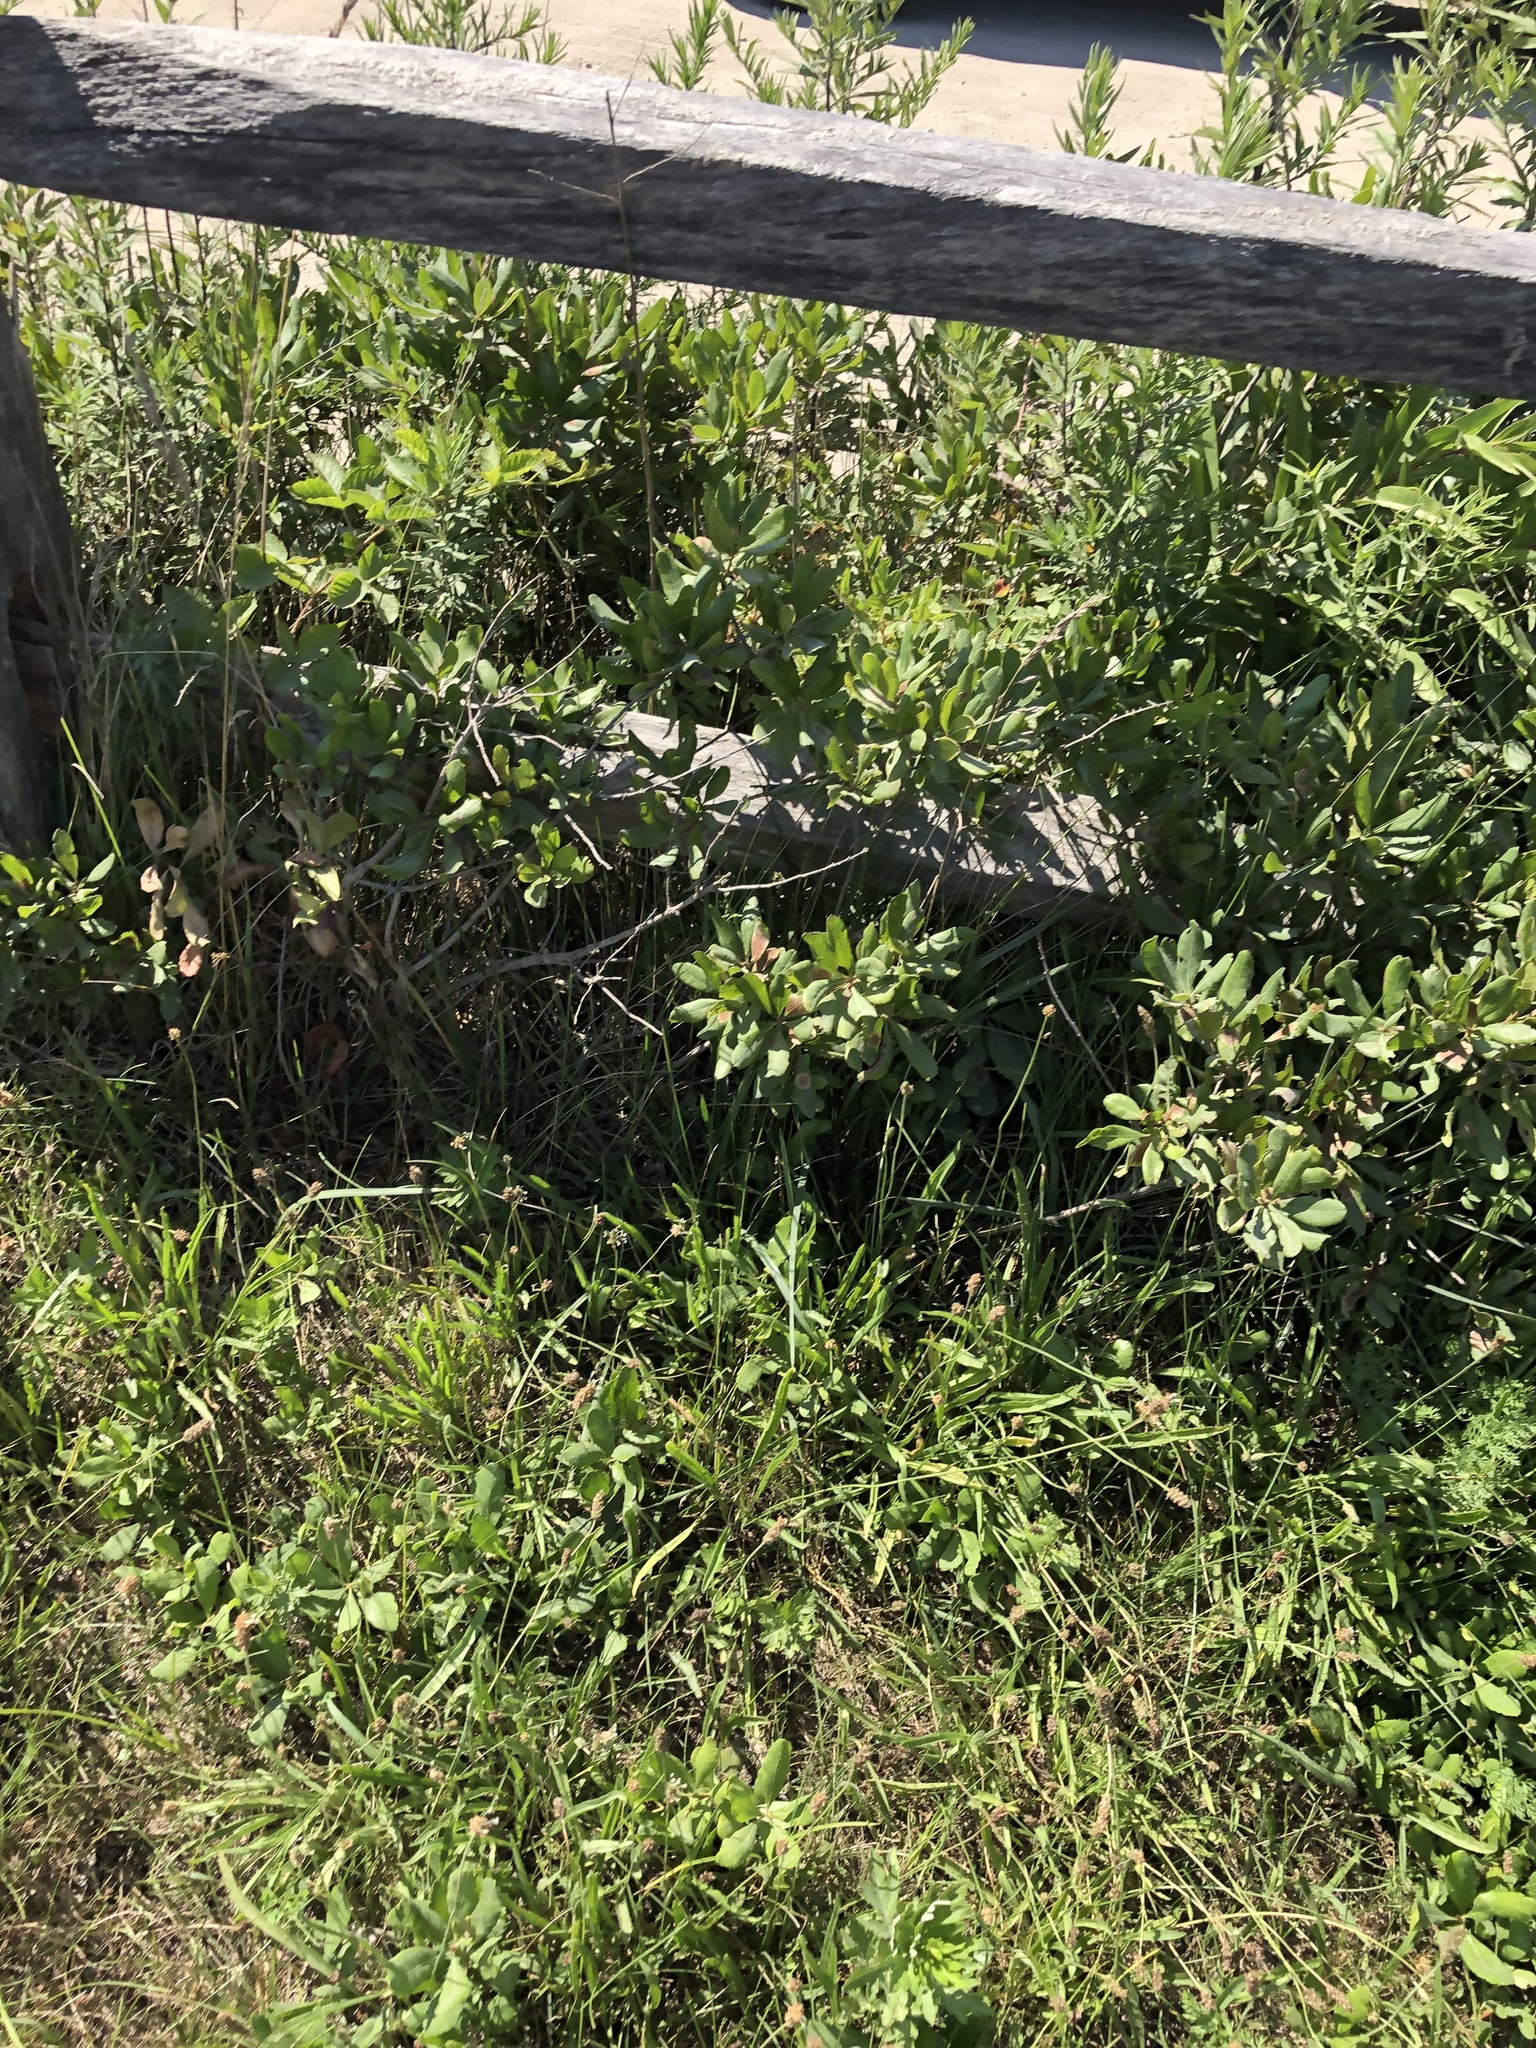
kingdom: Plantae
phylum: Tracheophyta
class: Magnoliopsida
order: Fagales
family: Myricaceae
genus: Morella
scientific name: Morella pensylvanica
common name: Northern bayberry
